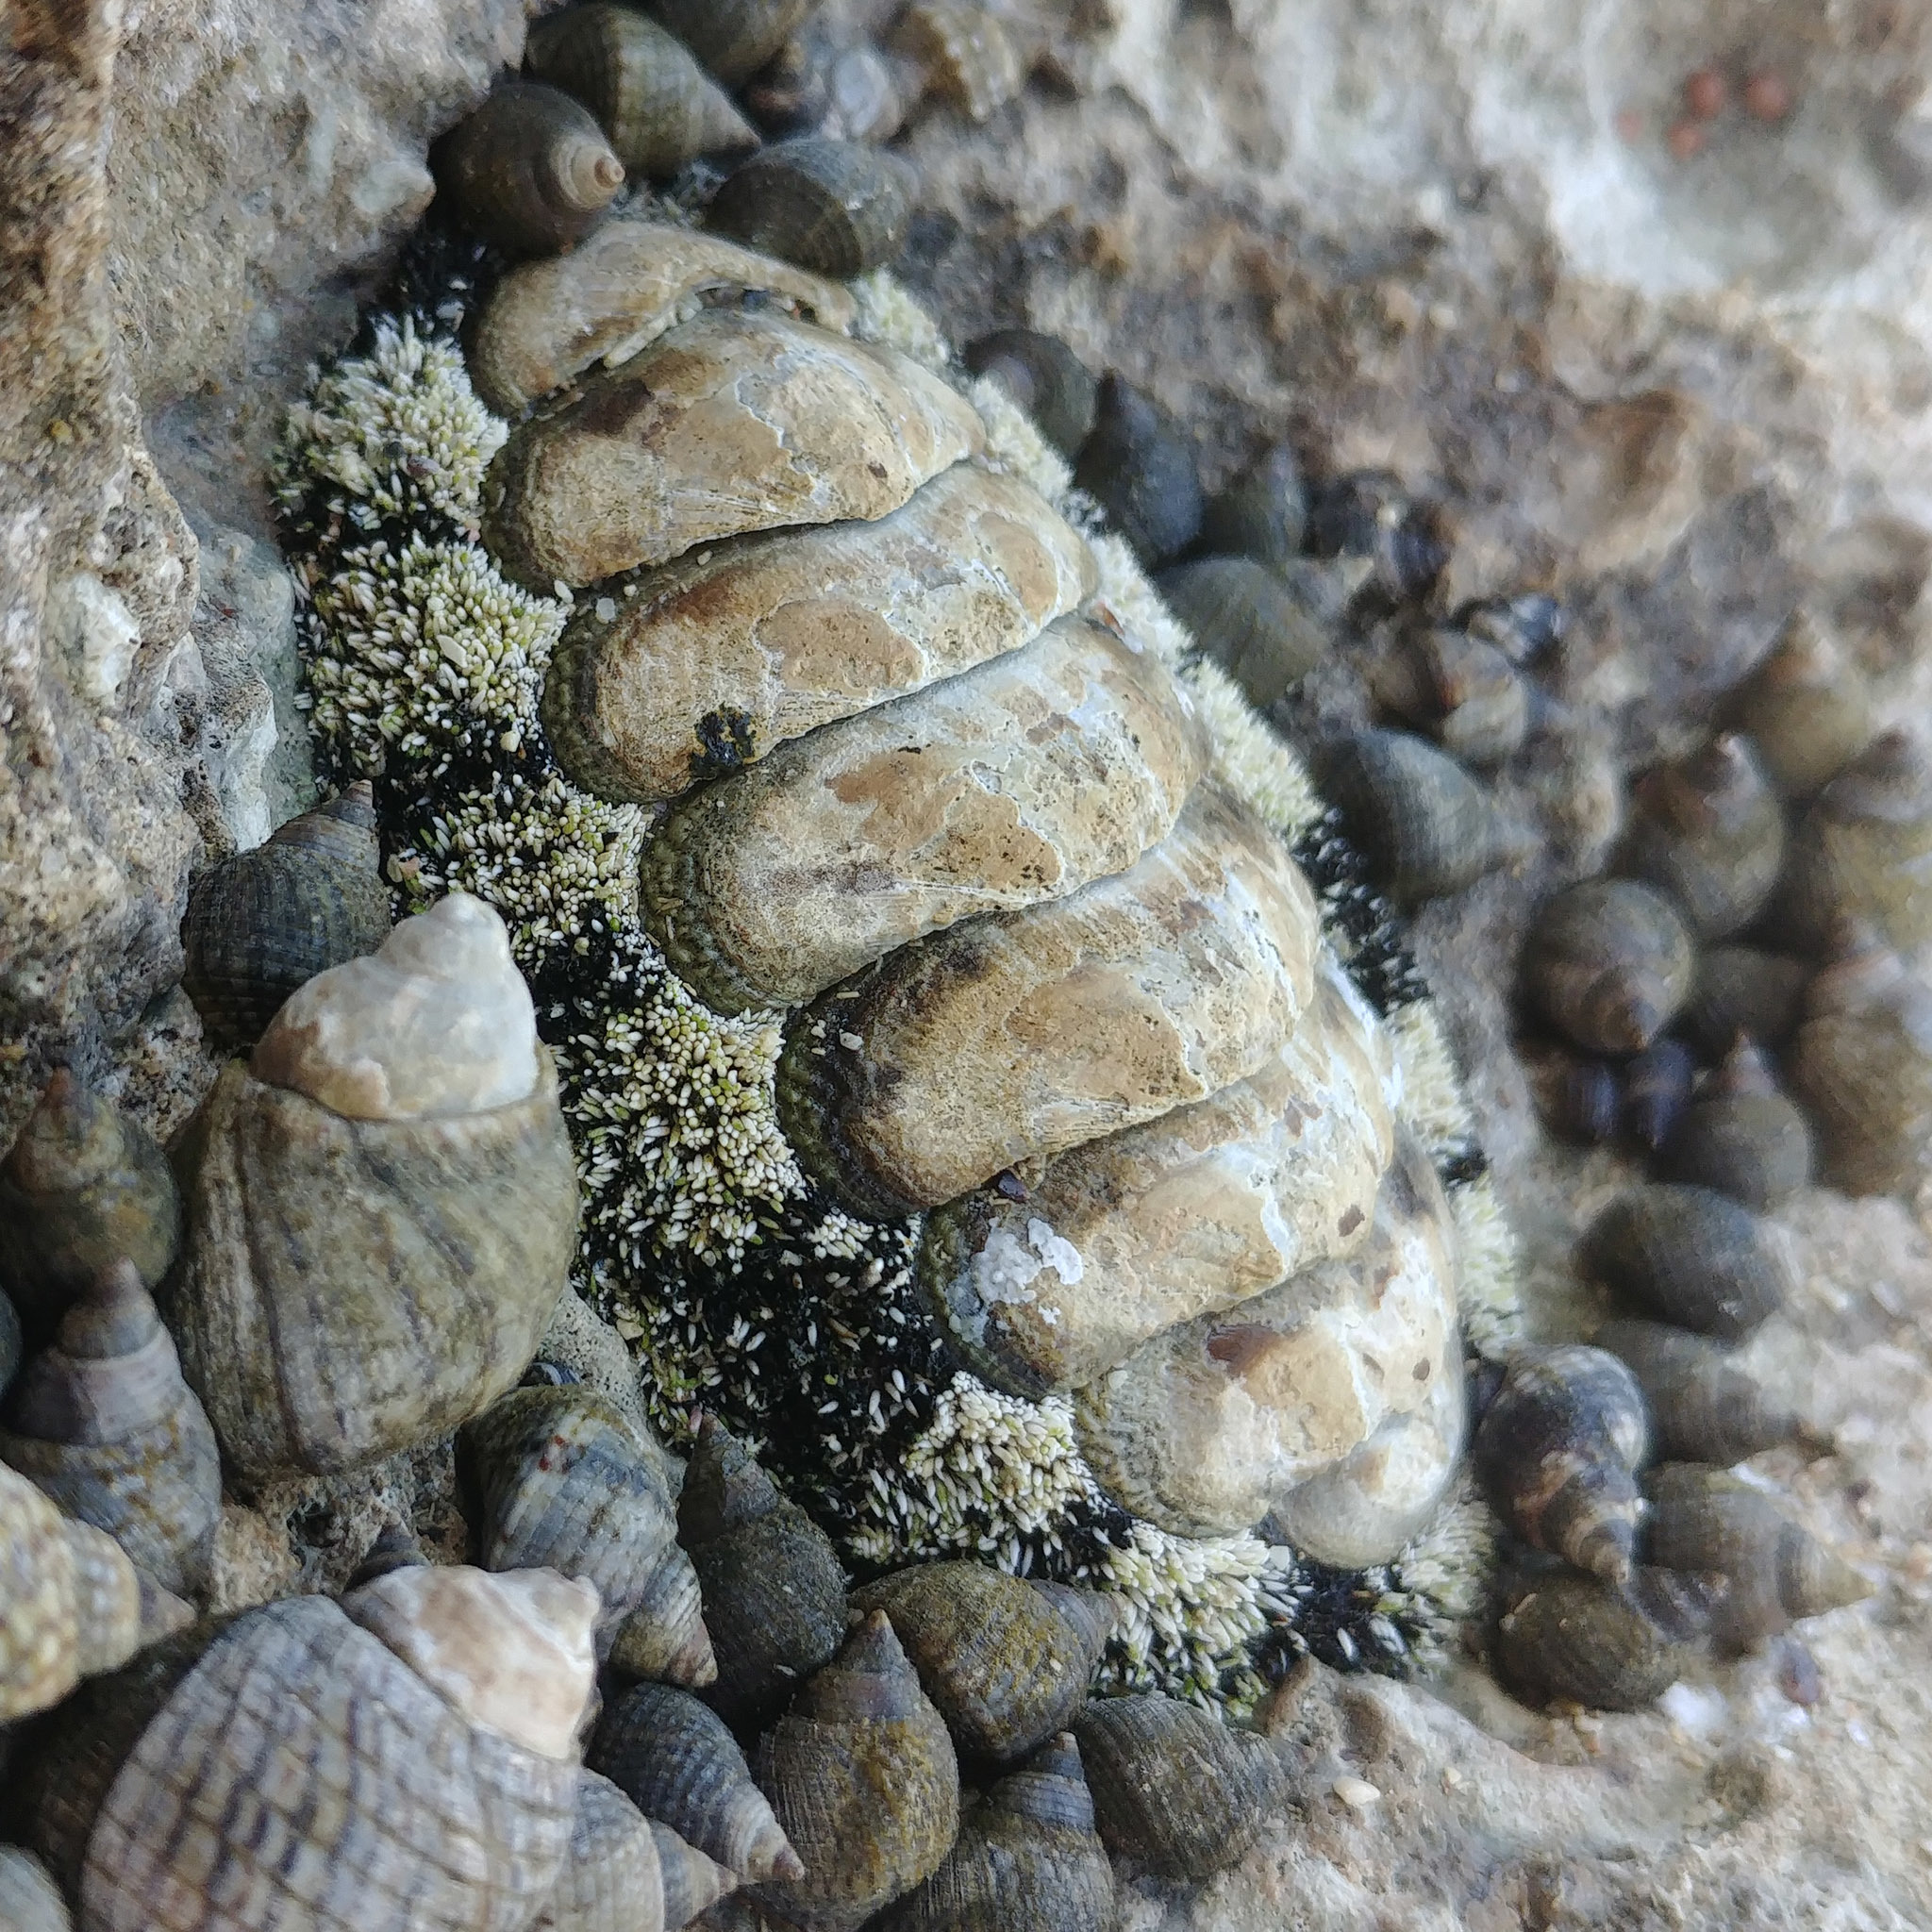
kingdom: Animalia
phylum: Mollusca
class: Polyplacophora
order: Chitonida
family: Chitonidae
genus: Acanthopleura
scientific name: Acanthopleura vaillantii
